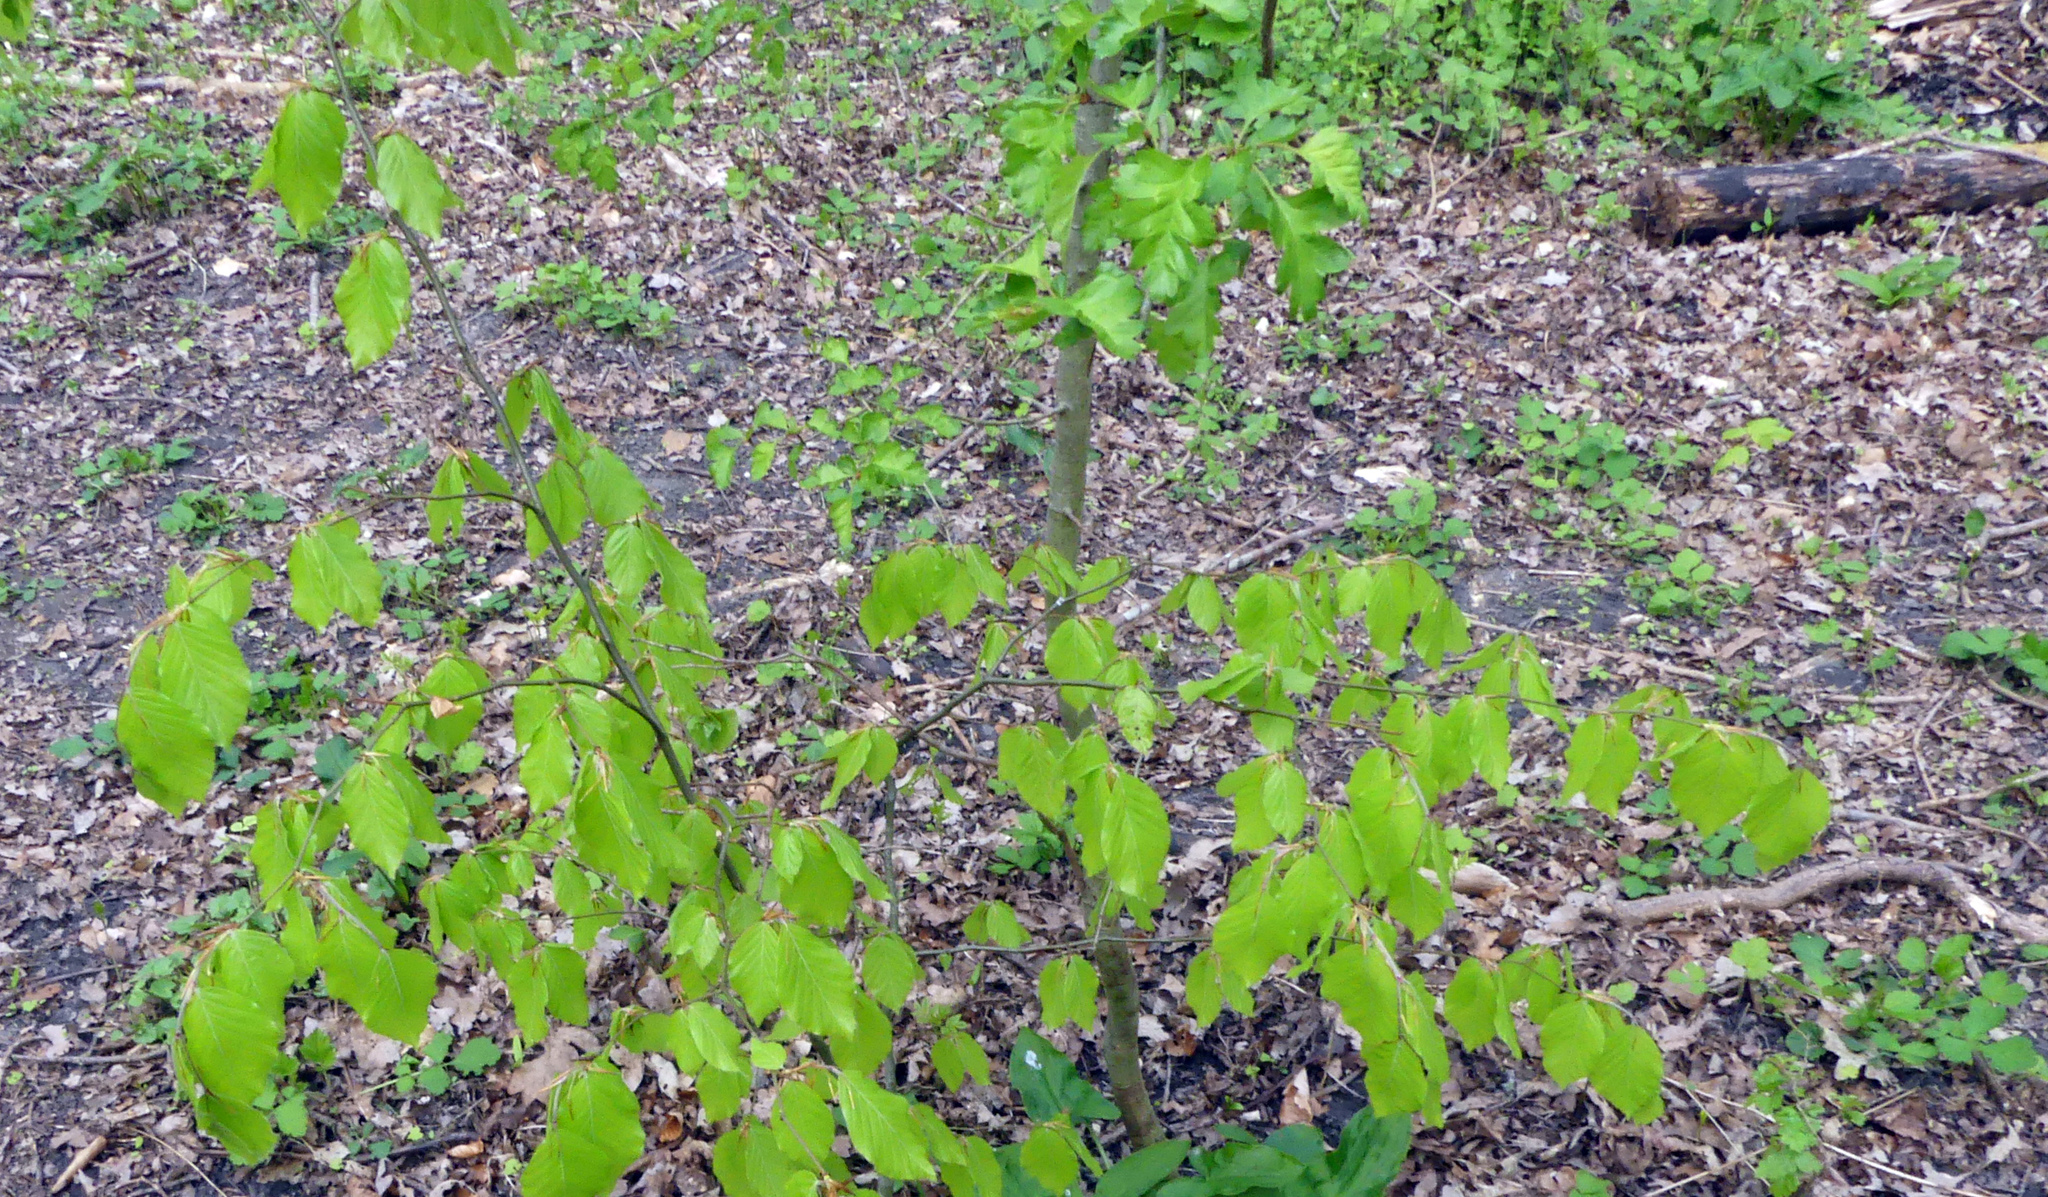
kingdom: Plantae
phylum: Tracheophyta
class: Magnoliopsida
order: Fagales
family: Fagaceae
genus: Fagus
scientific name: Fagus sylvatica
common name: Beech
